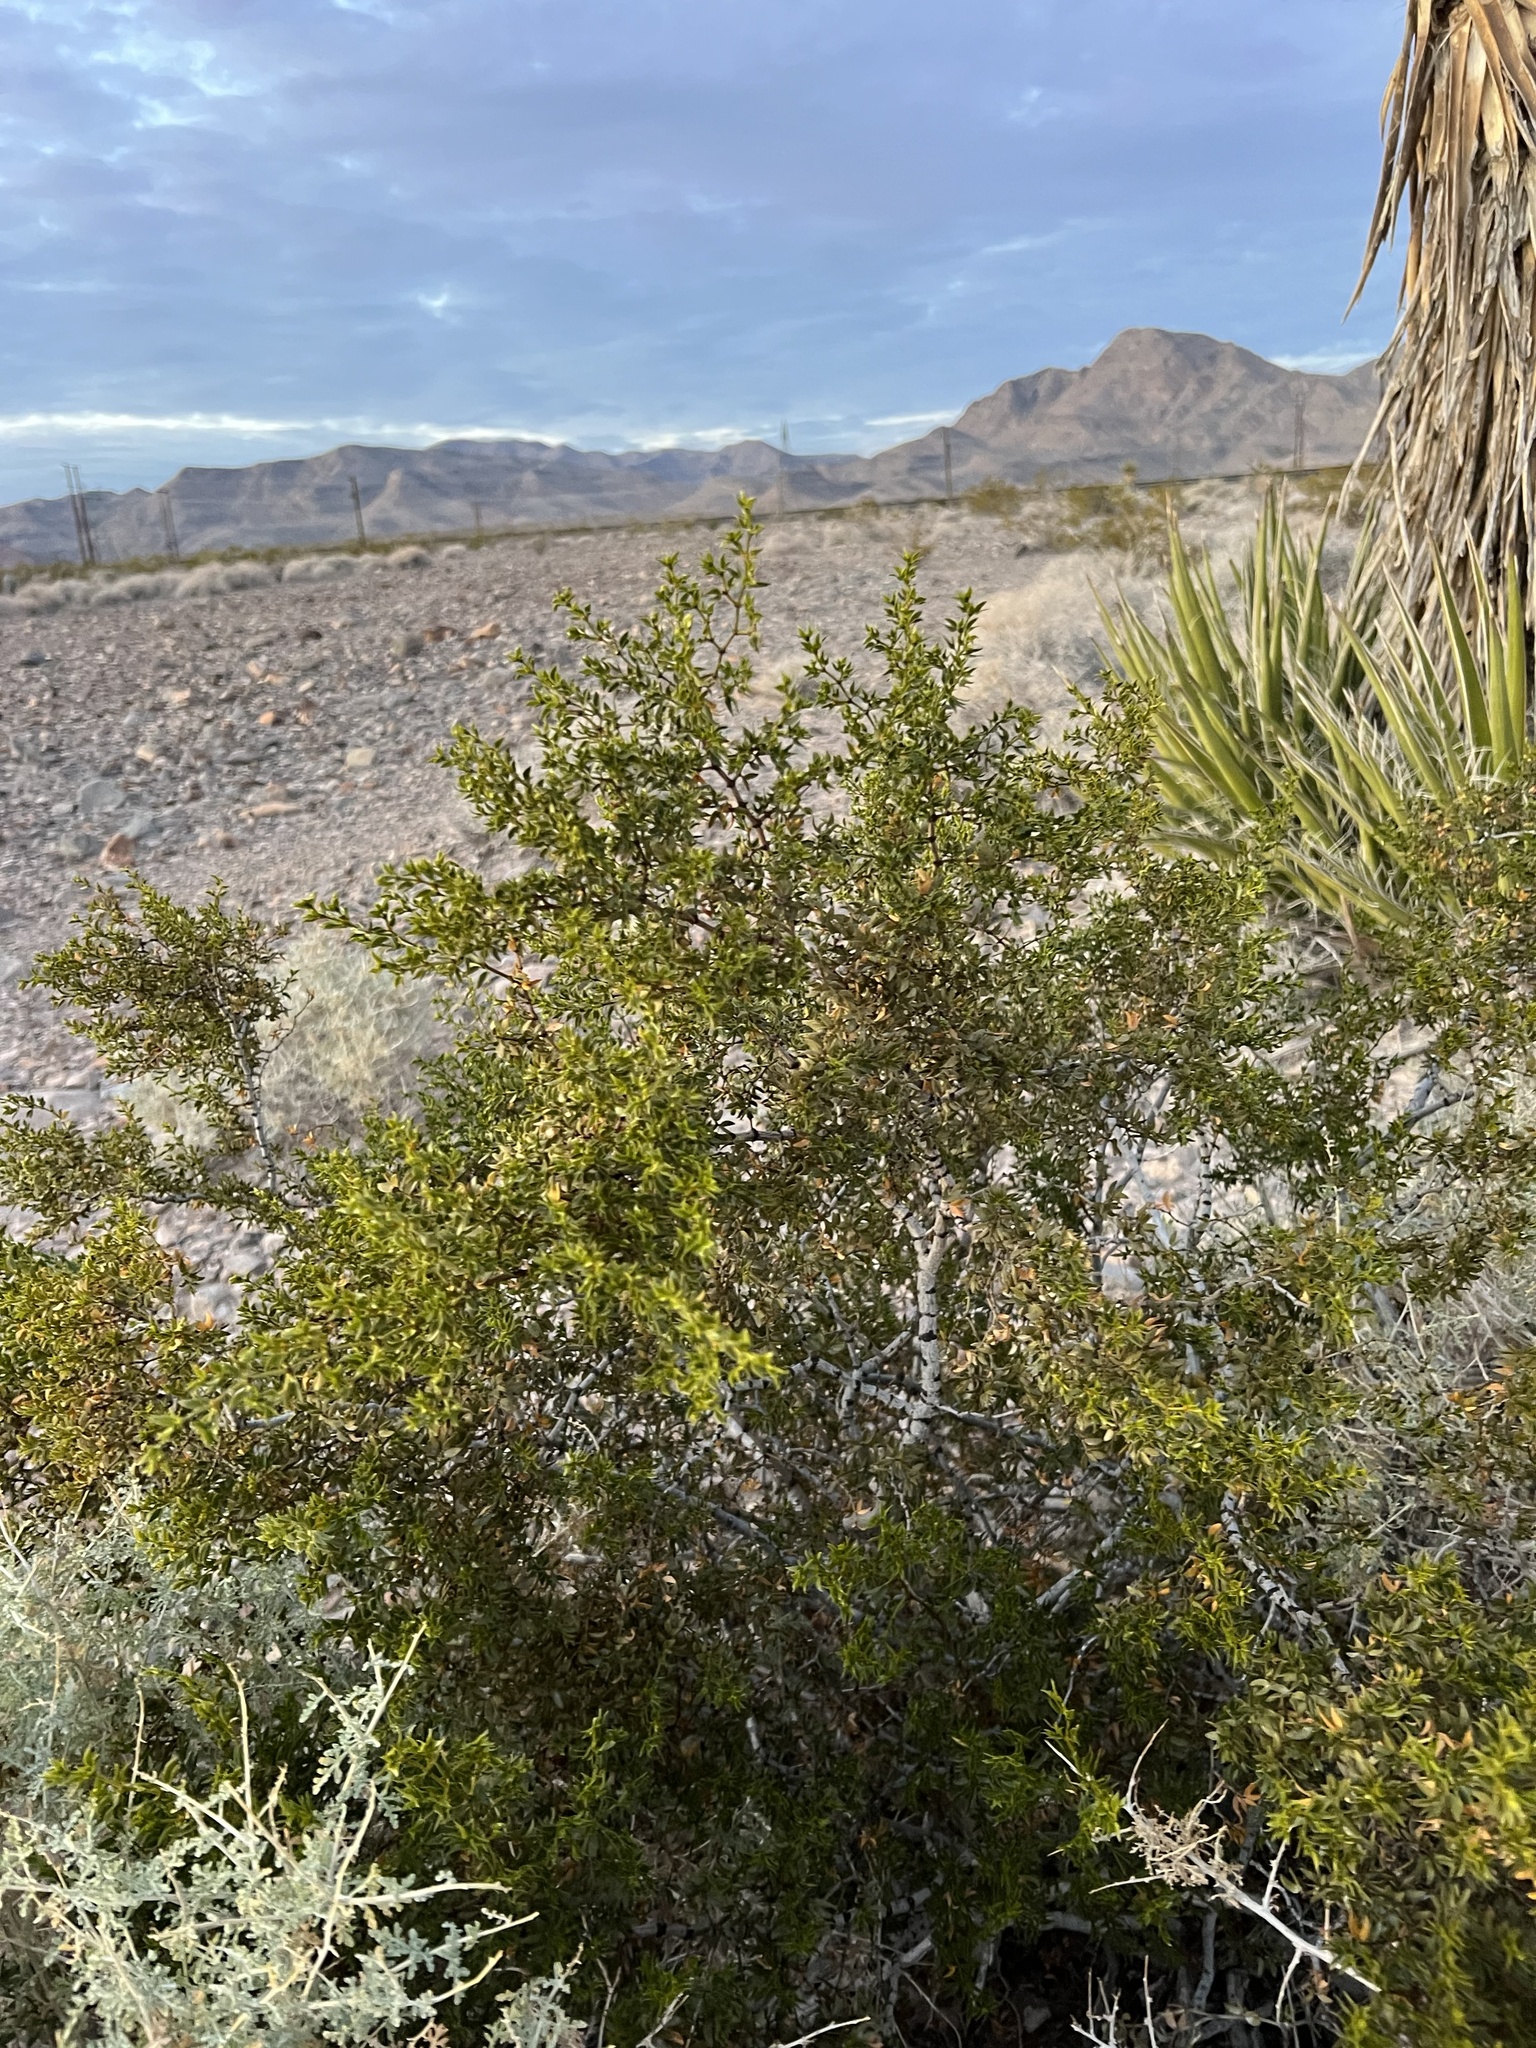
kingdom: Plantae
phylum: Tracheophyta
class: Magnoliopsida
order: Zygophyllales
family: Zygophyllaceae
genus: Larrea
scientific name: Larrea tridentata
